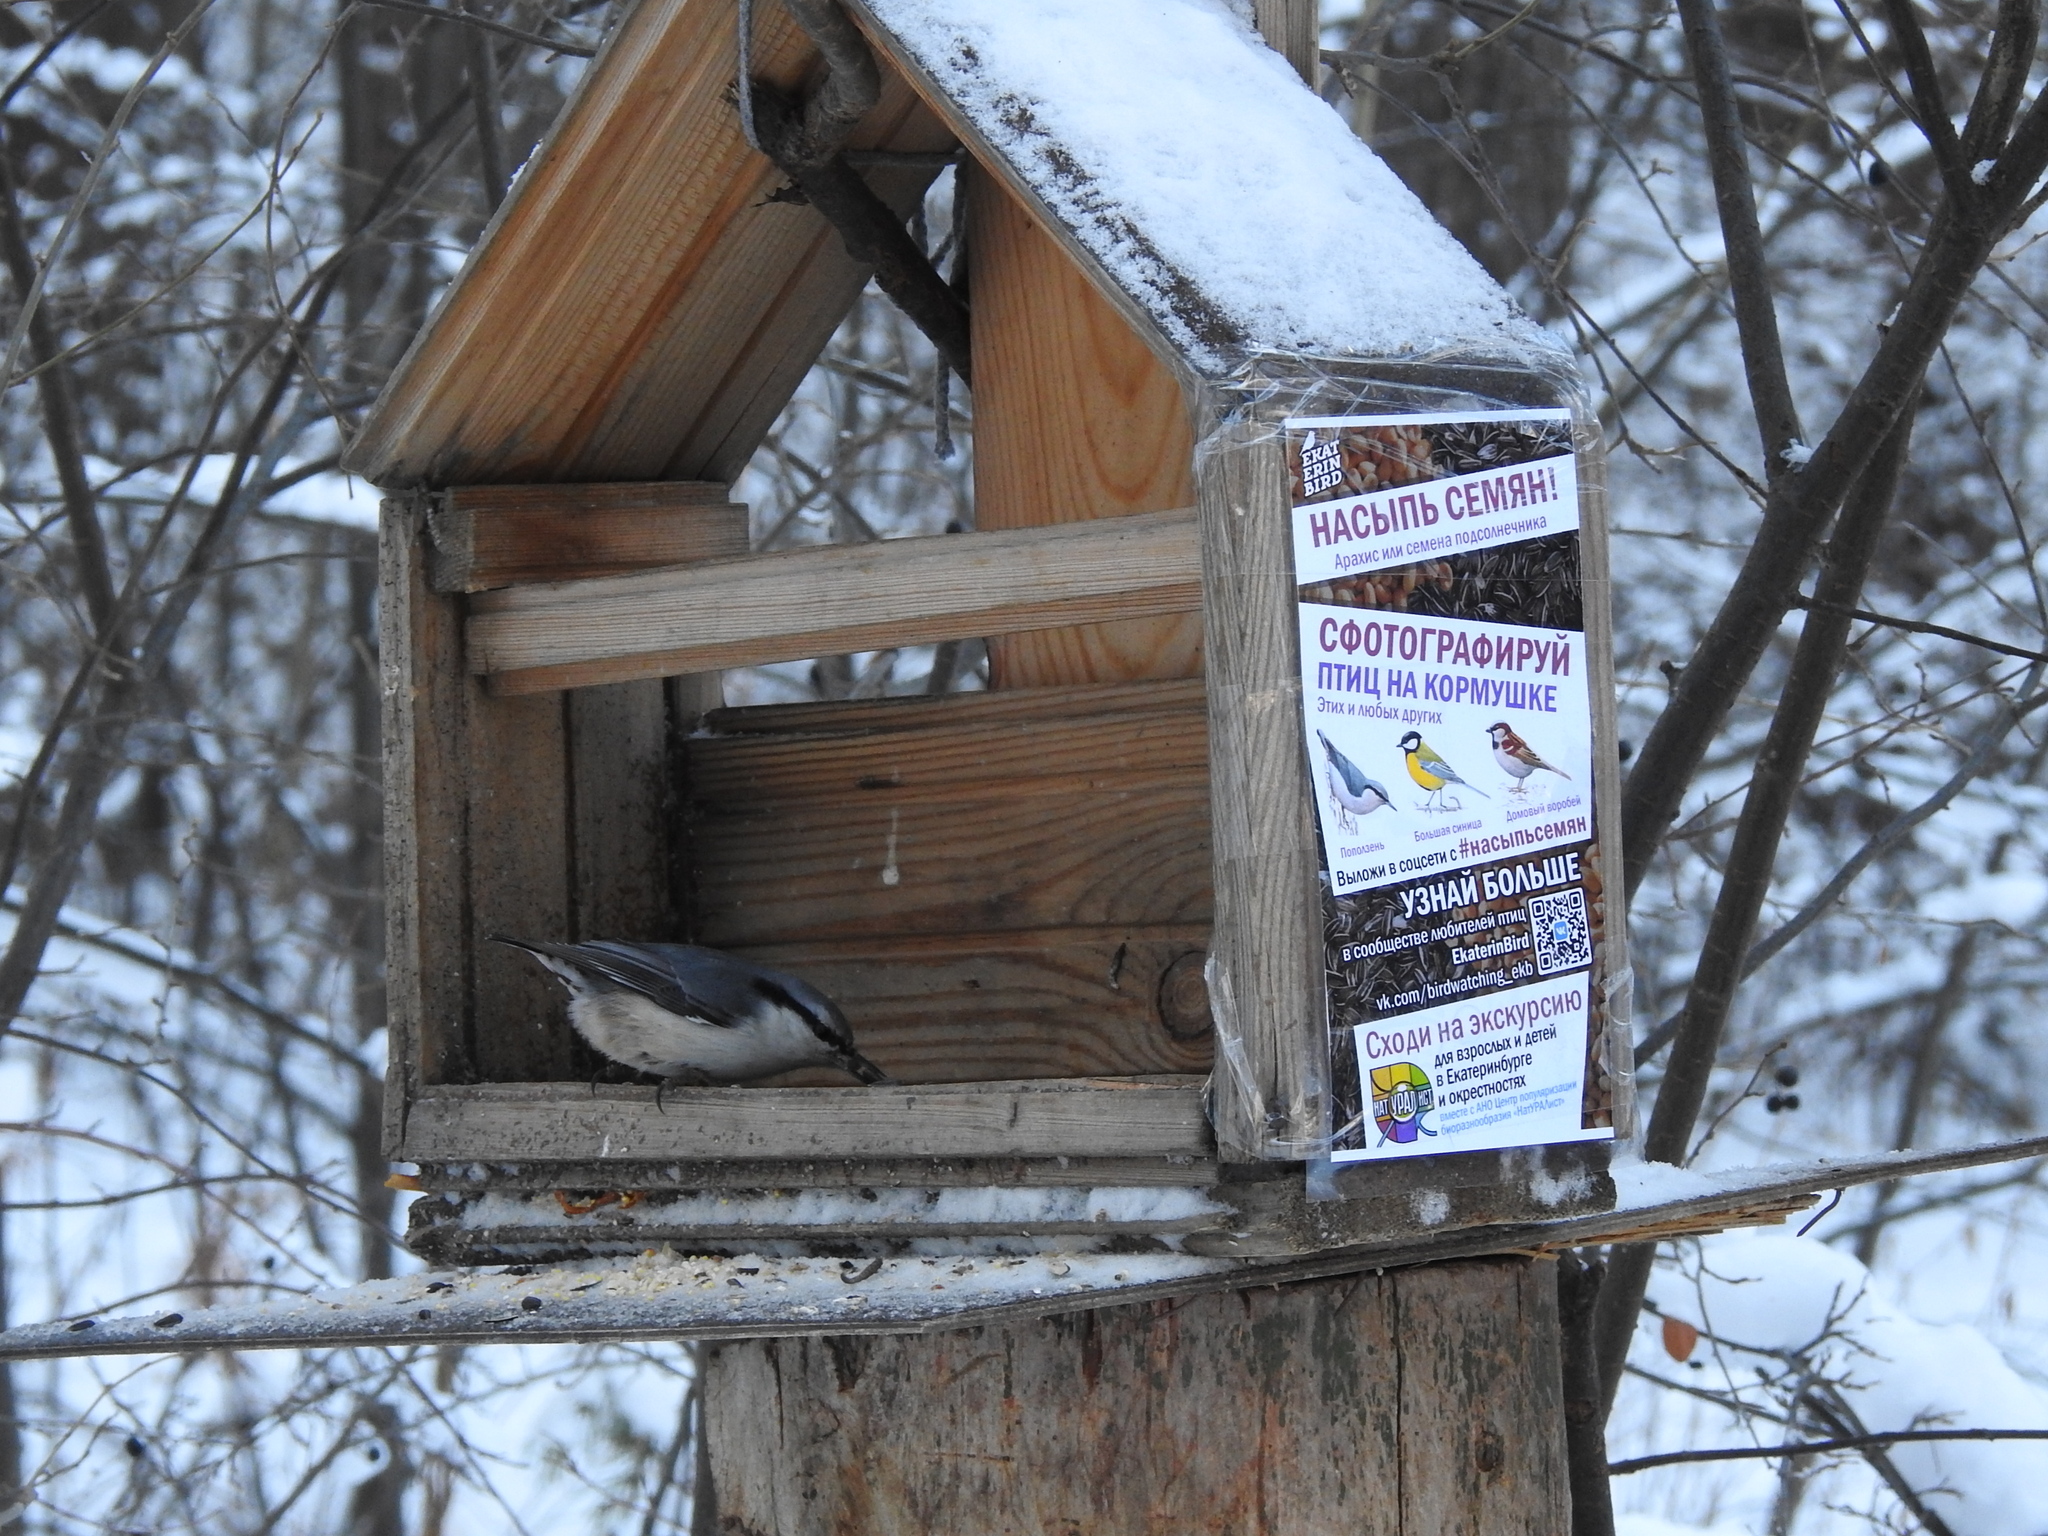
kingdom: Animalia
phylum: Chordata
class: Aves
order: Passeriformes
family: Sittidae
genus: Sitta
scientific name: Sitta europaea
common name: Eurasian nuthatch
